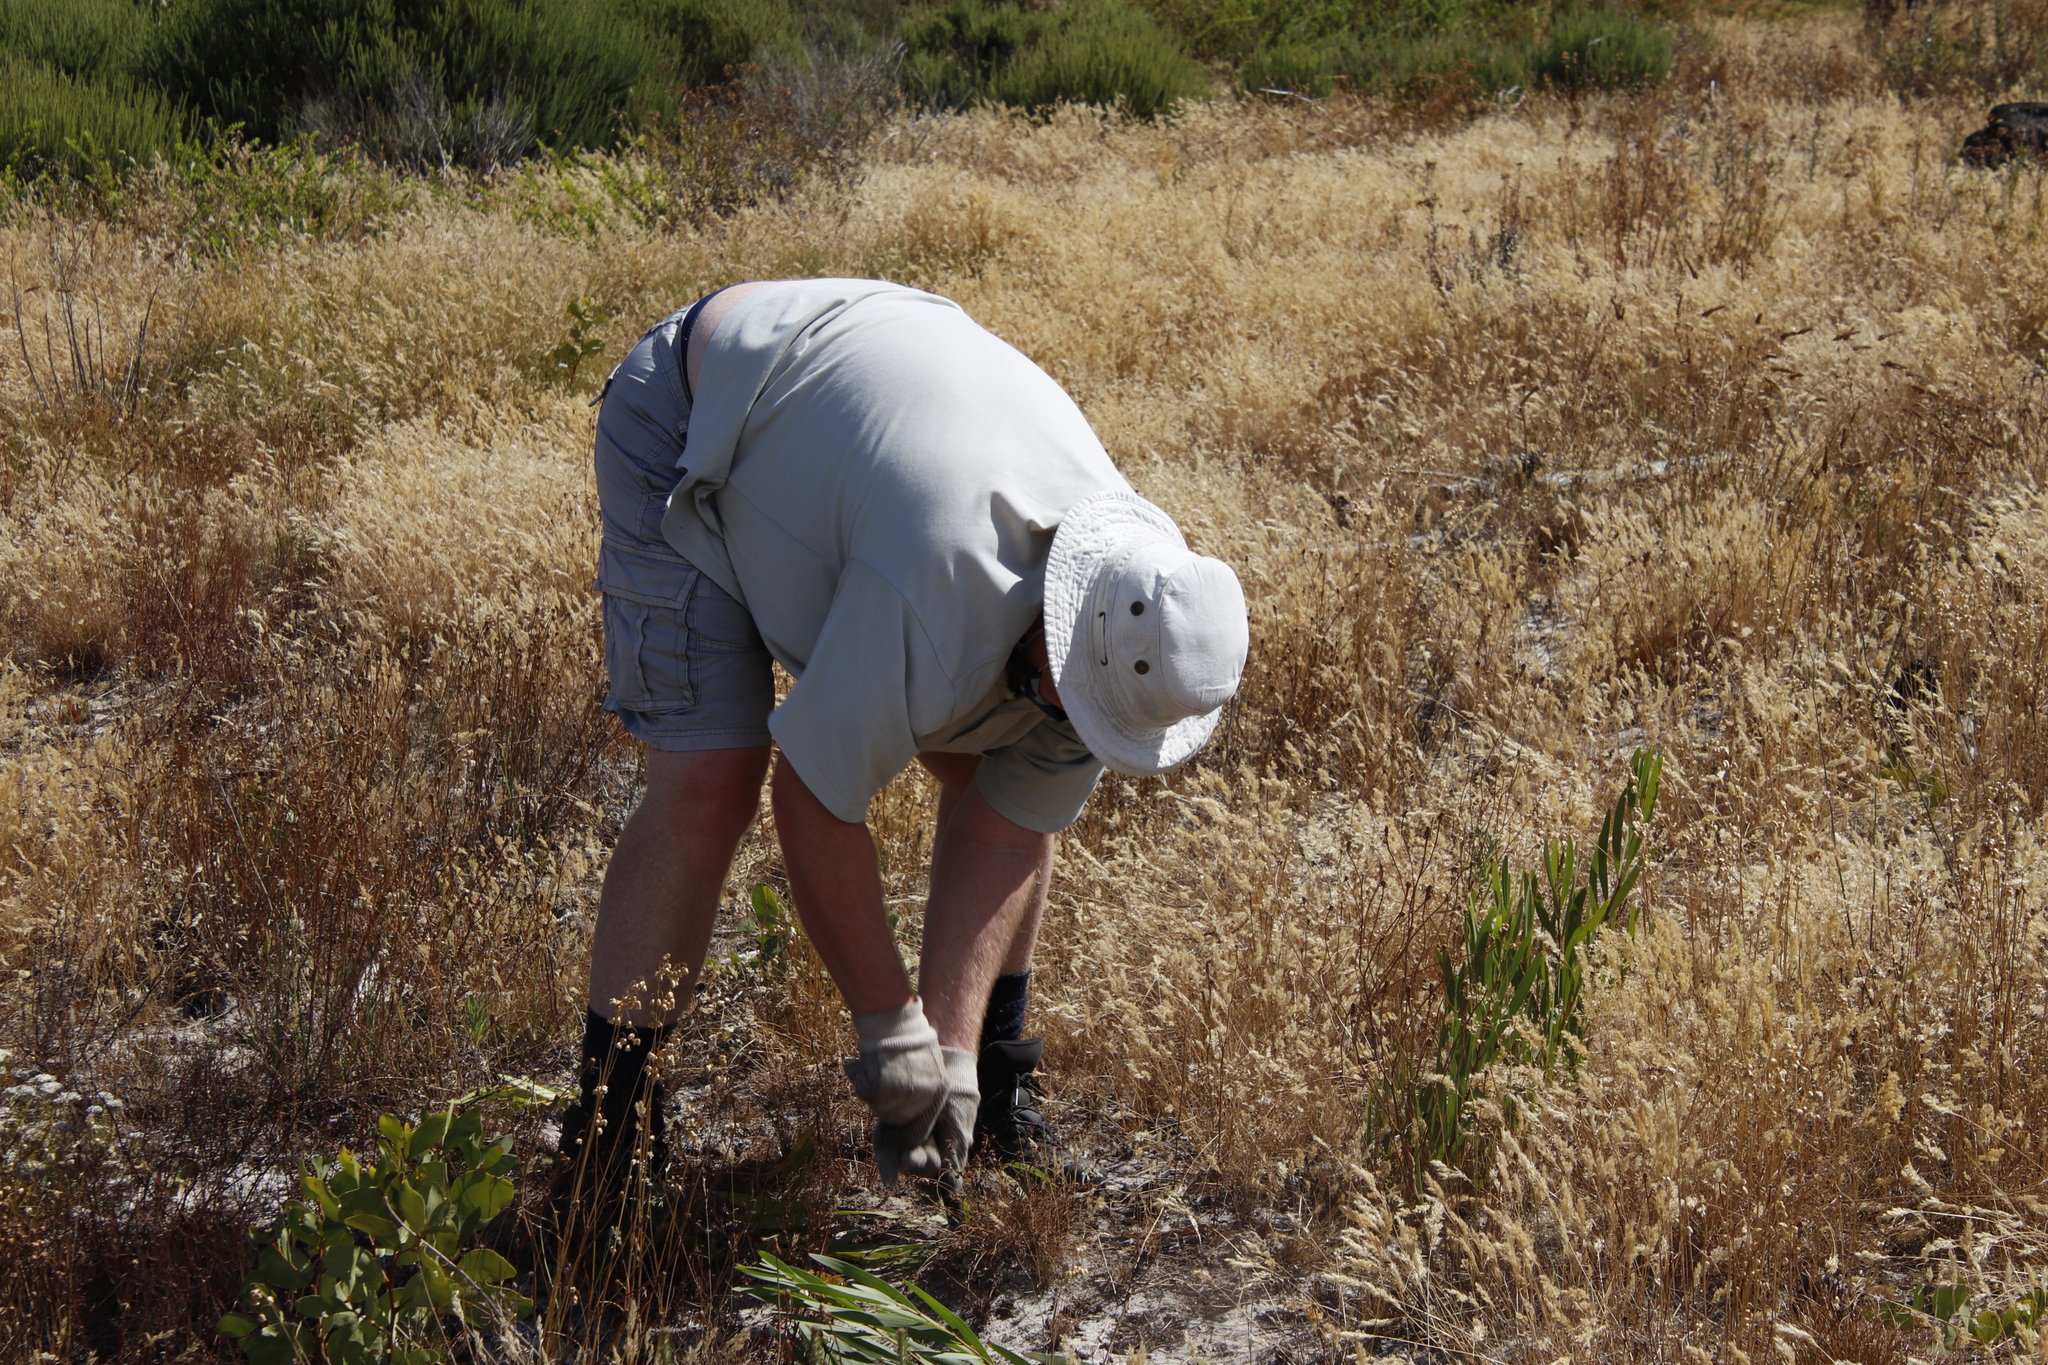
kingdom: Plantae
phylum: Tracheophyta
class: Magnoliopsida
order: Fabales
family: Fabaceae
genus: Acacia
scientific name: Acacia longifolia
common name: Sydney golden wattle
